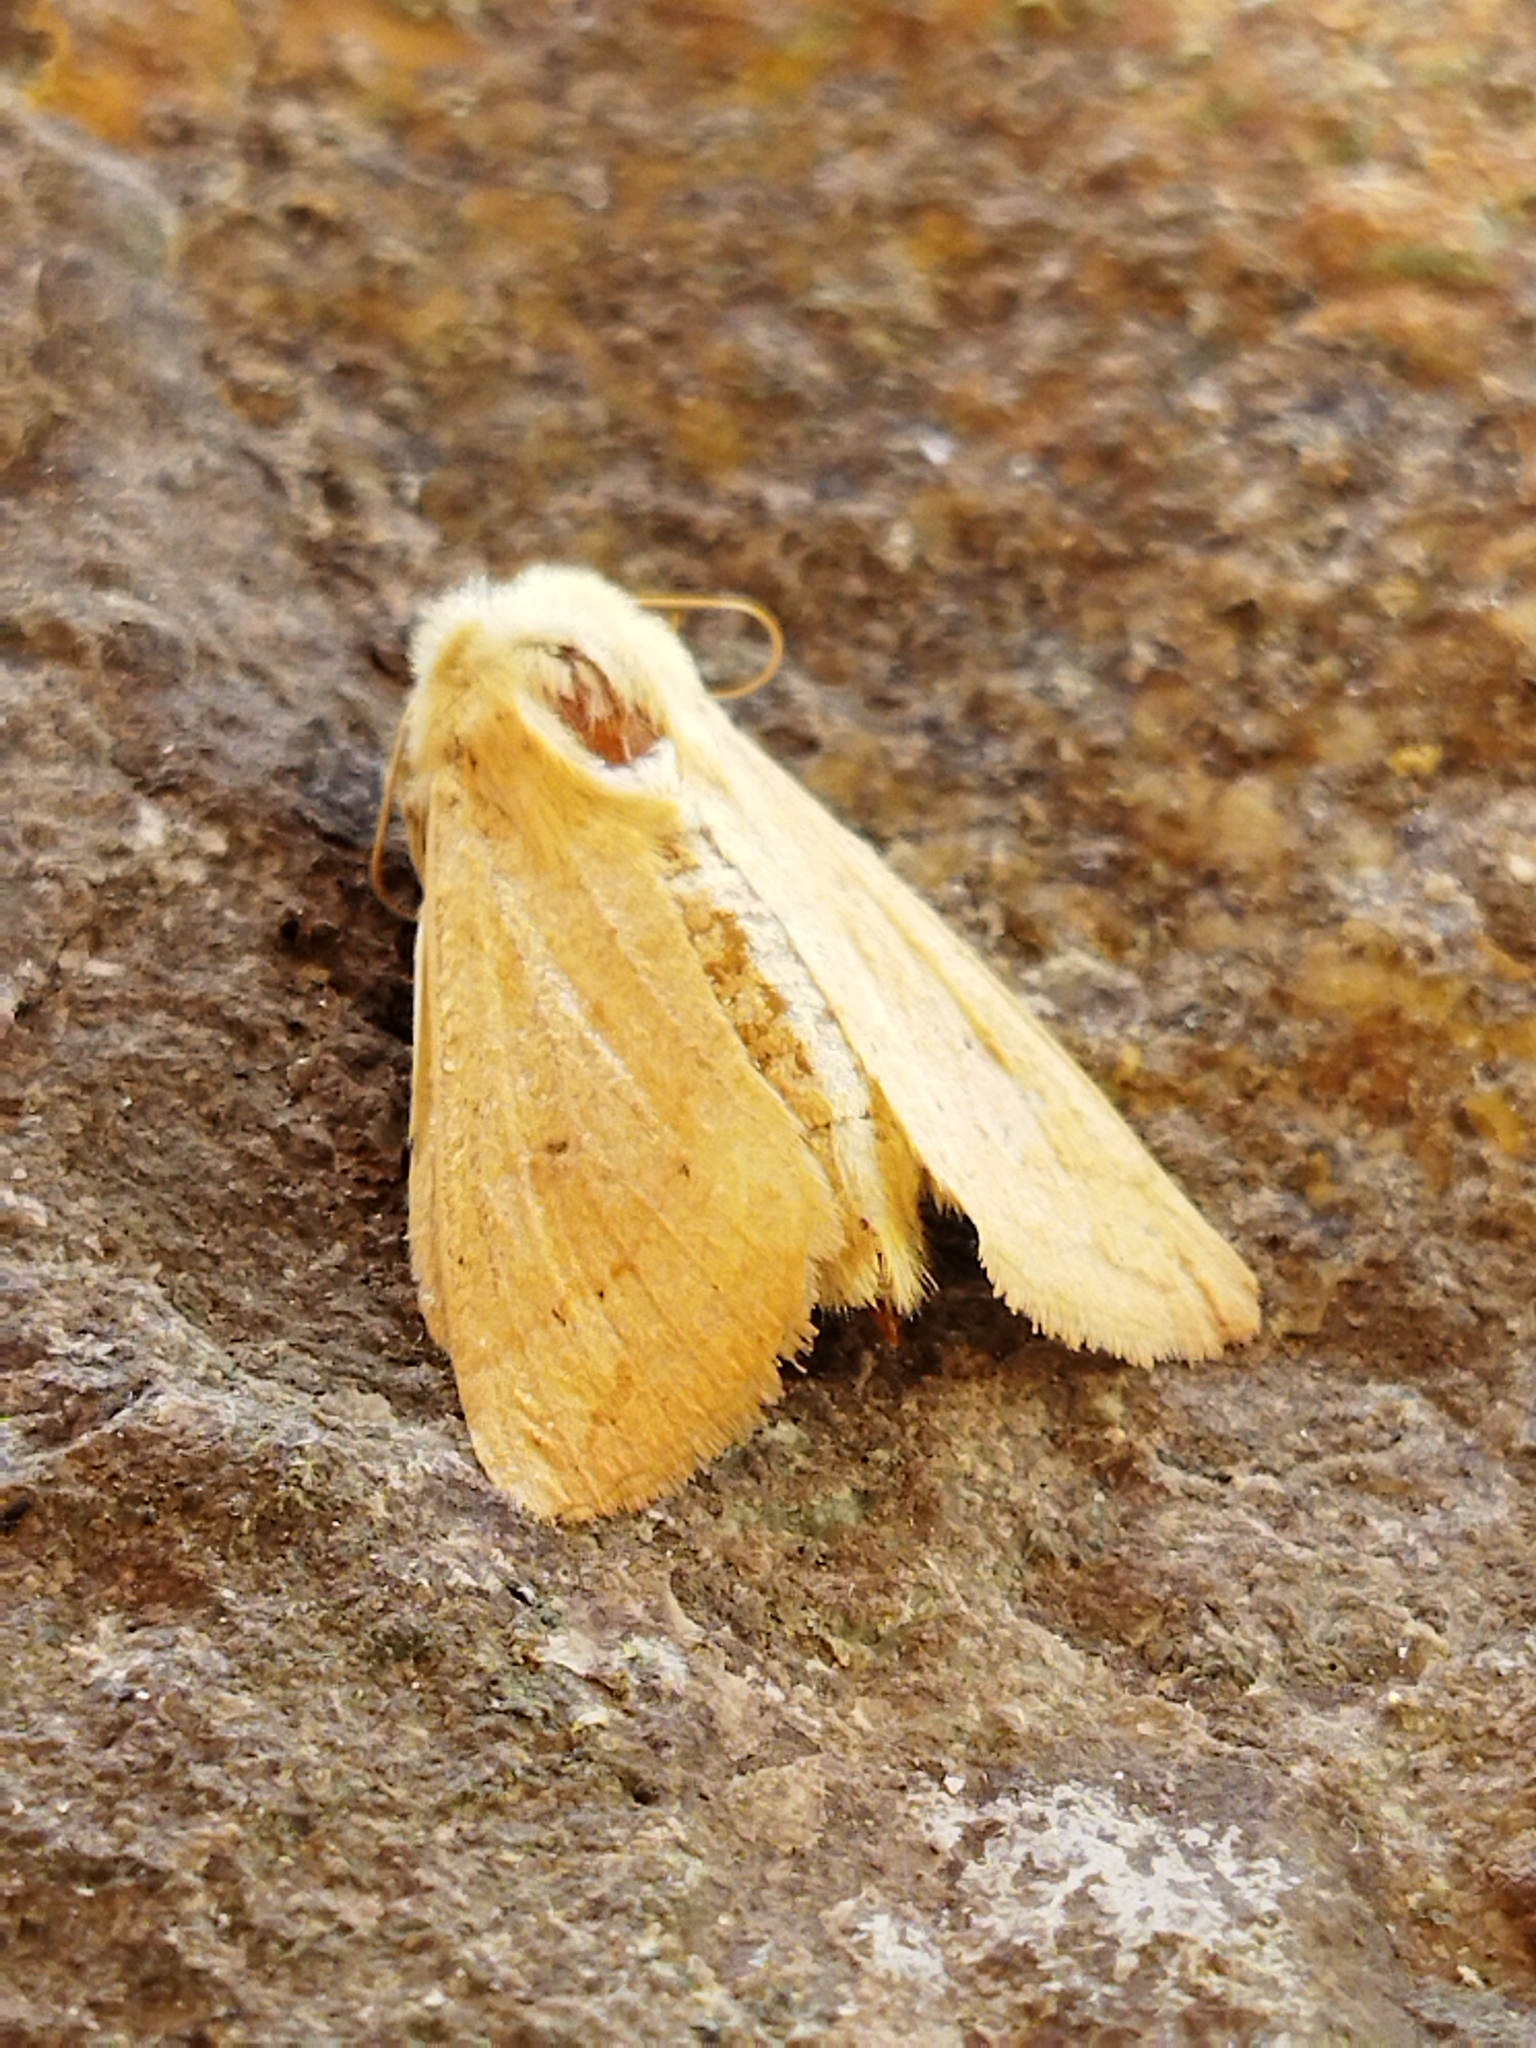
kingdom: Animalia
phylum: Arthropoda
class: Insecta
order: Lepidoptera
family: Noctuidae
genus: Mythimna
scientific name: Mythimna vitellina
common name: Delicate
